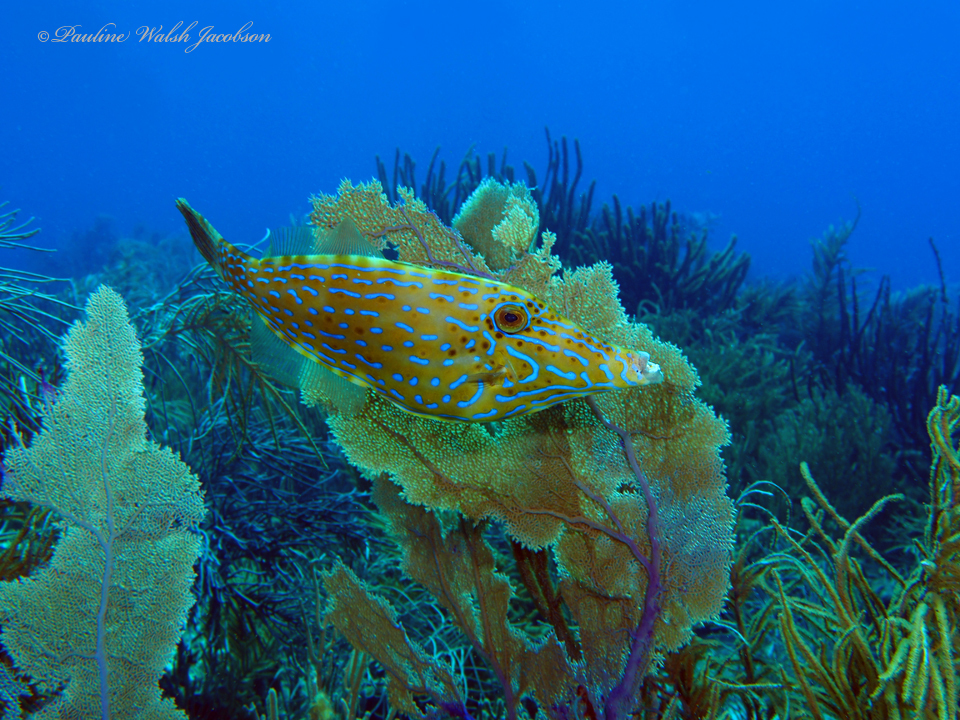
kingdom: Animalia
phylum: Chordata
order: Tetraodontiformes
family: Monacanthidae
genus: Aluterus
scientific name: Aluterus scriptus
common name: Scribbled leatherjacket filefish
